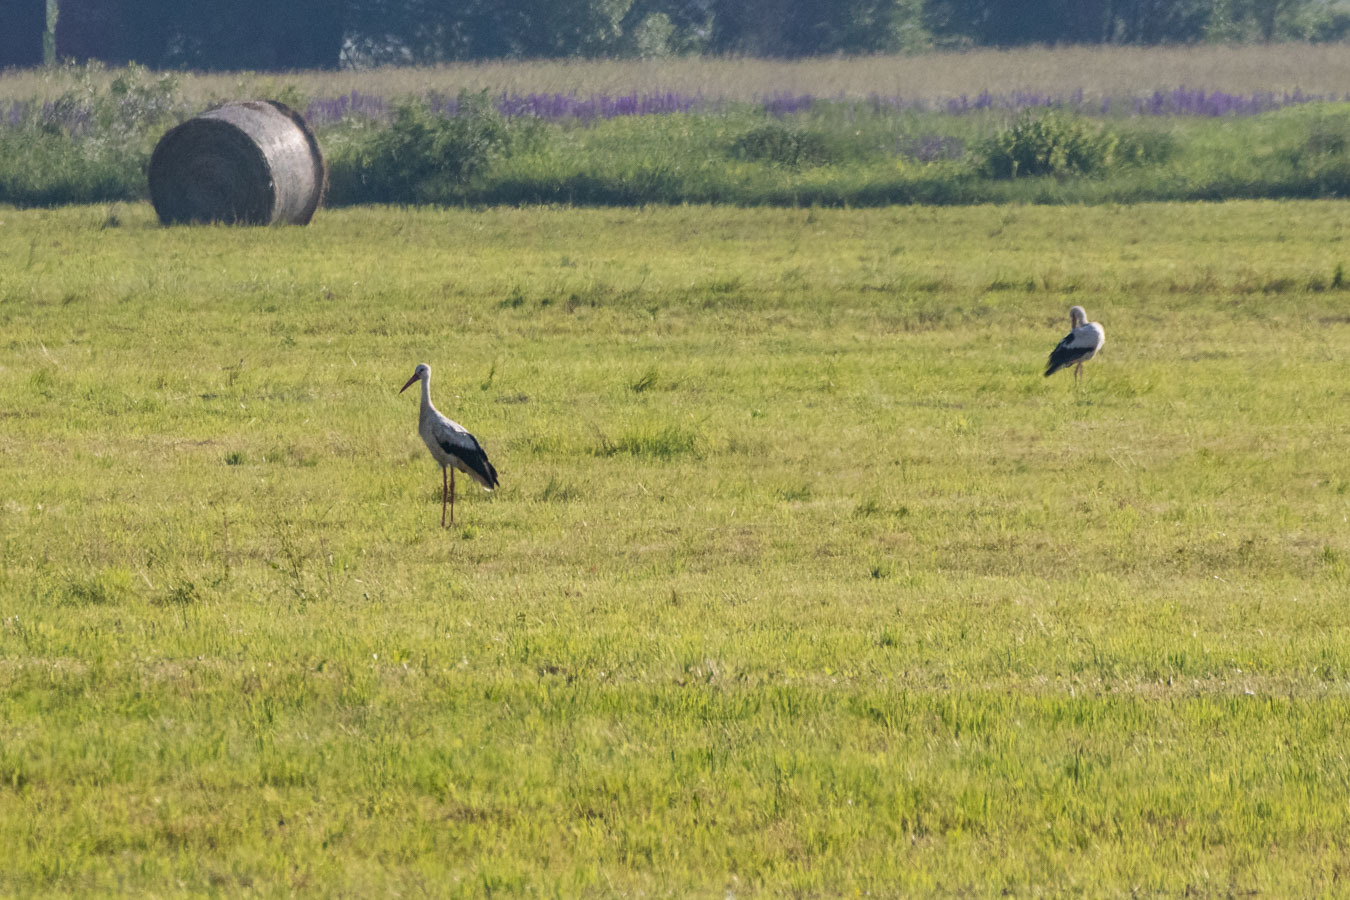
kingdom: Animalia
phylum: Chordata
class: Aves
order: Ciconiiformes
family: Ciconiidae
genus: Ciconia
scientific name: Ciconia ciconia
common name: White stork
